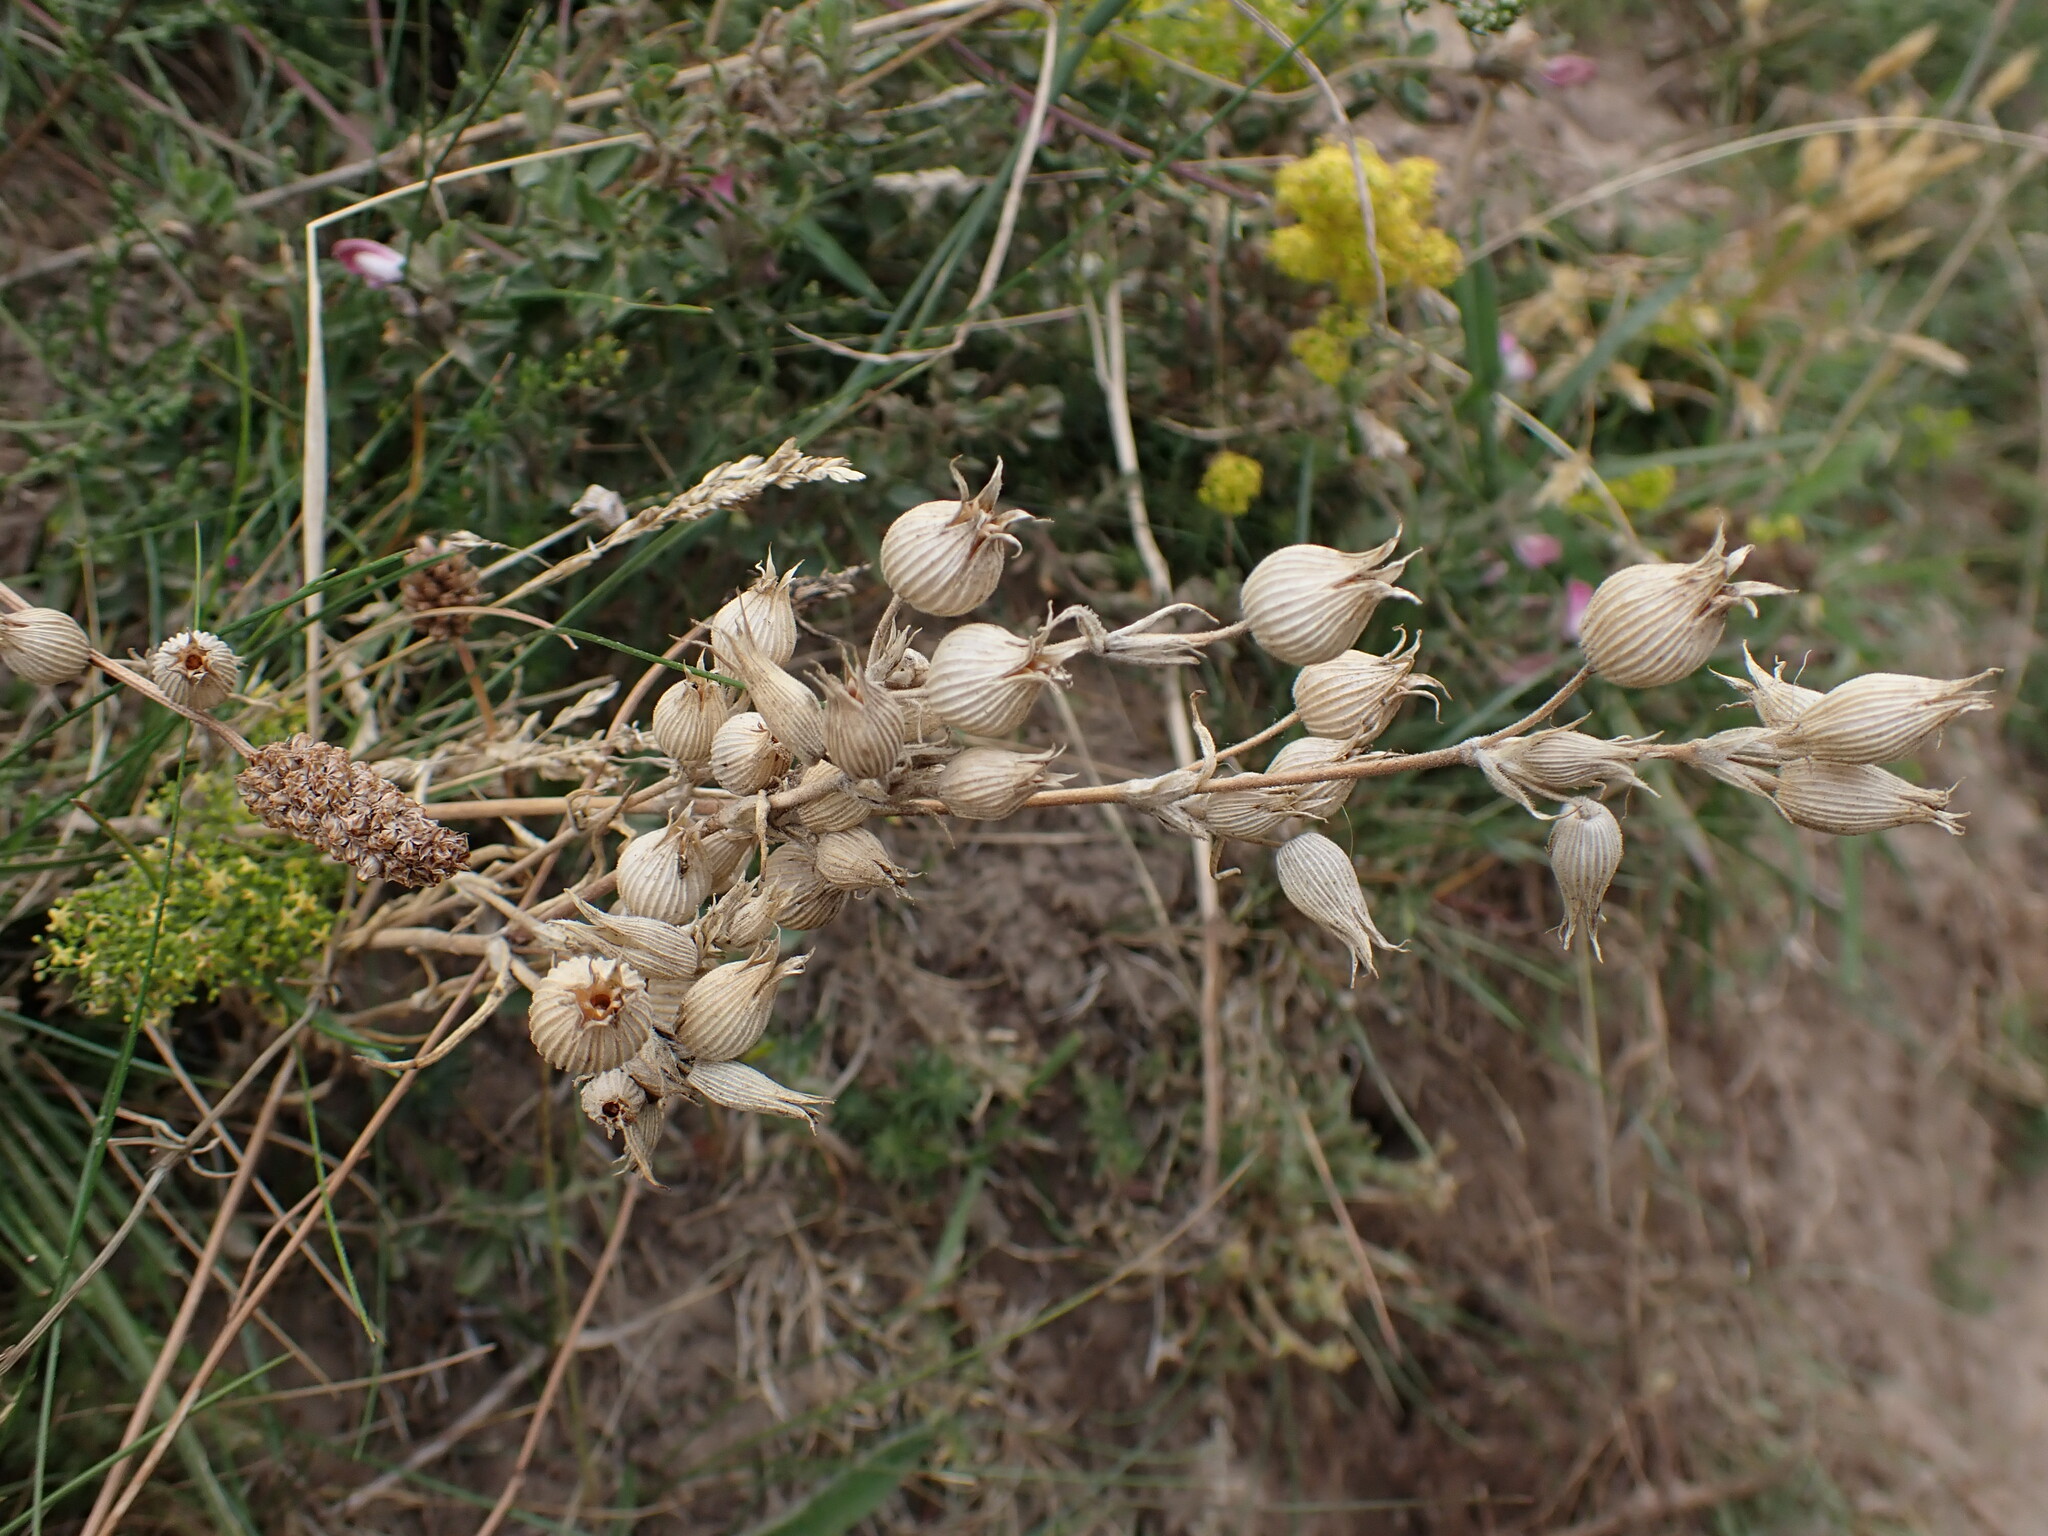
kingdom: Plantae
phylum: Tracheophyta
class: Magnoliopsida
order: Caryophyllales
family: Caryophyllaceae
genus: Silene
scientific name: Silene conica
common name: Sand catchfly
